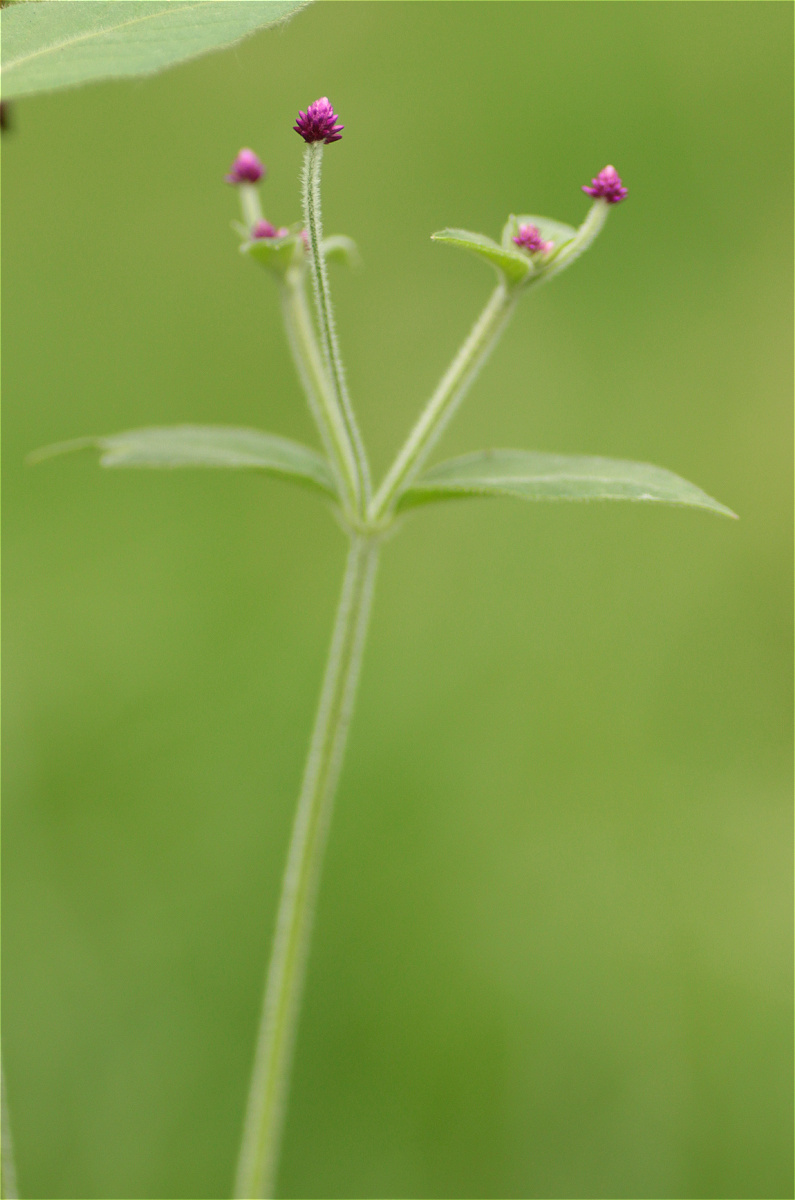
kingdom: Plantae
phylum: Tracheophyta
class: Magnoliopsida
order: Caryophyllales
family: Amaranthaceae
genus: Alternanthera
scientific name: Alternanthera porrigens
